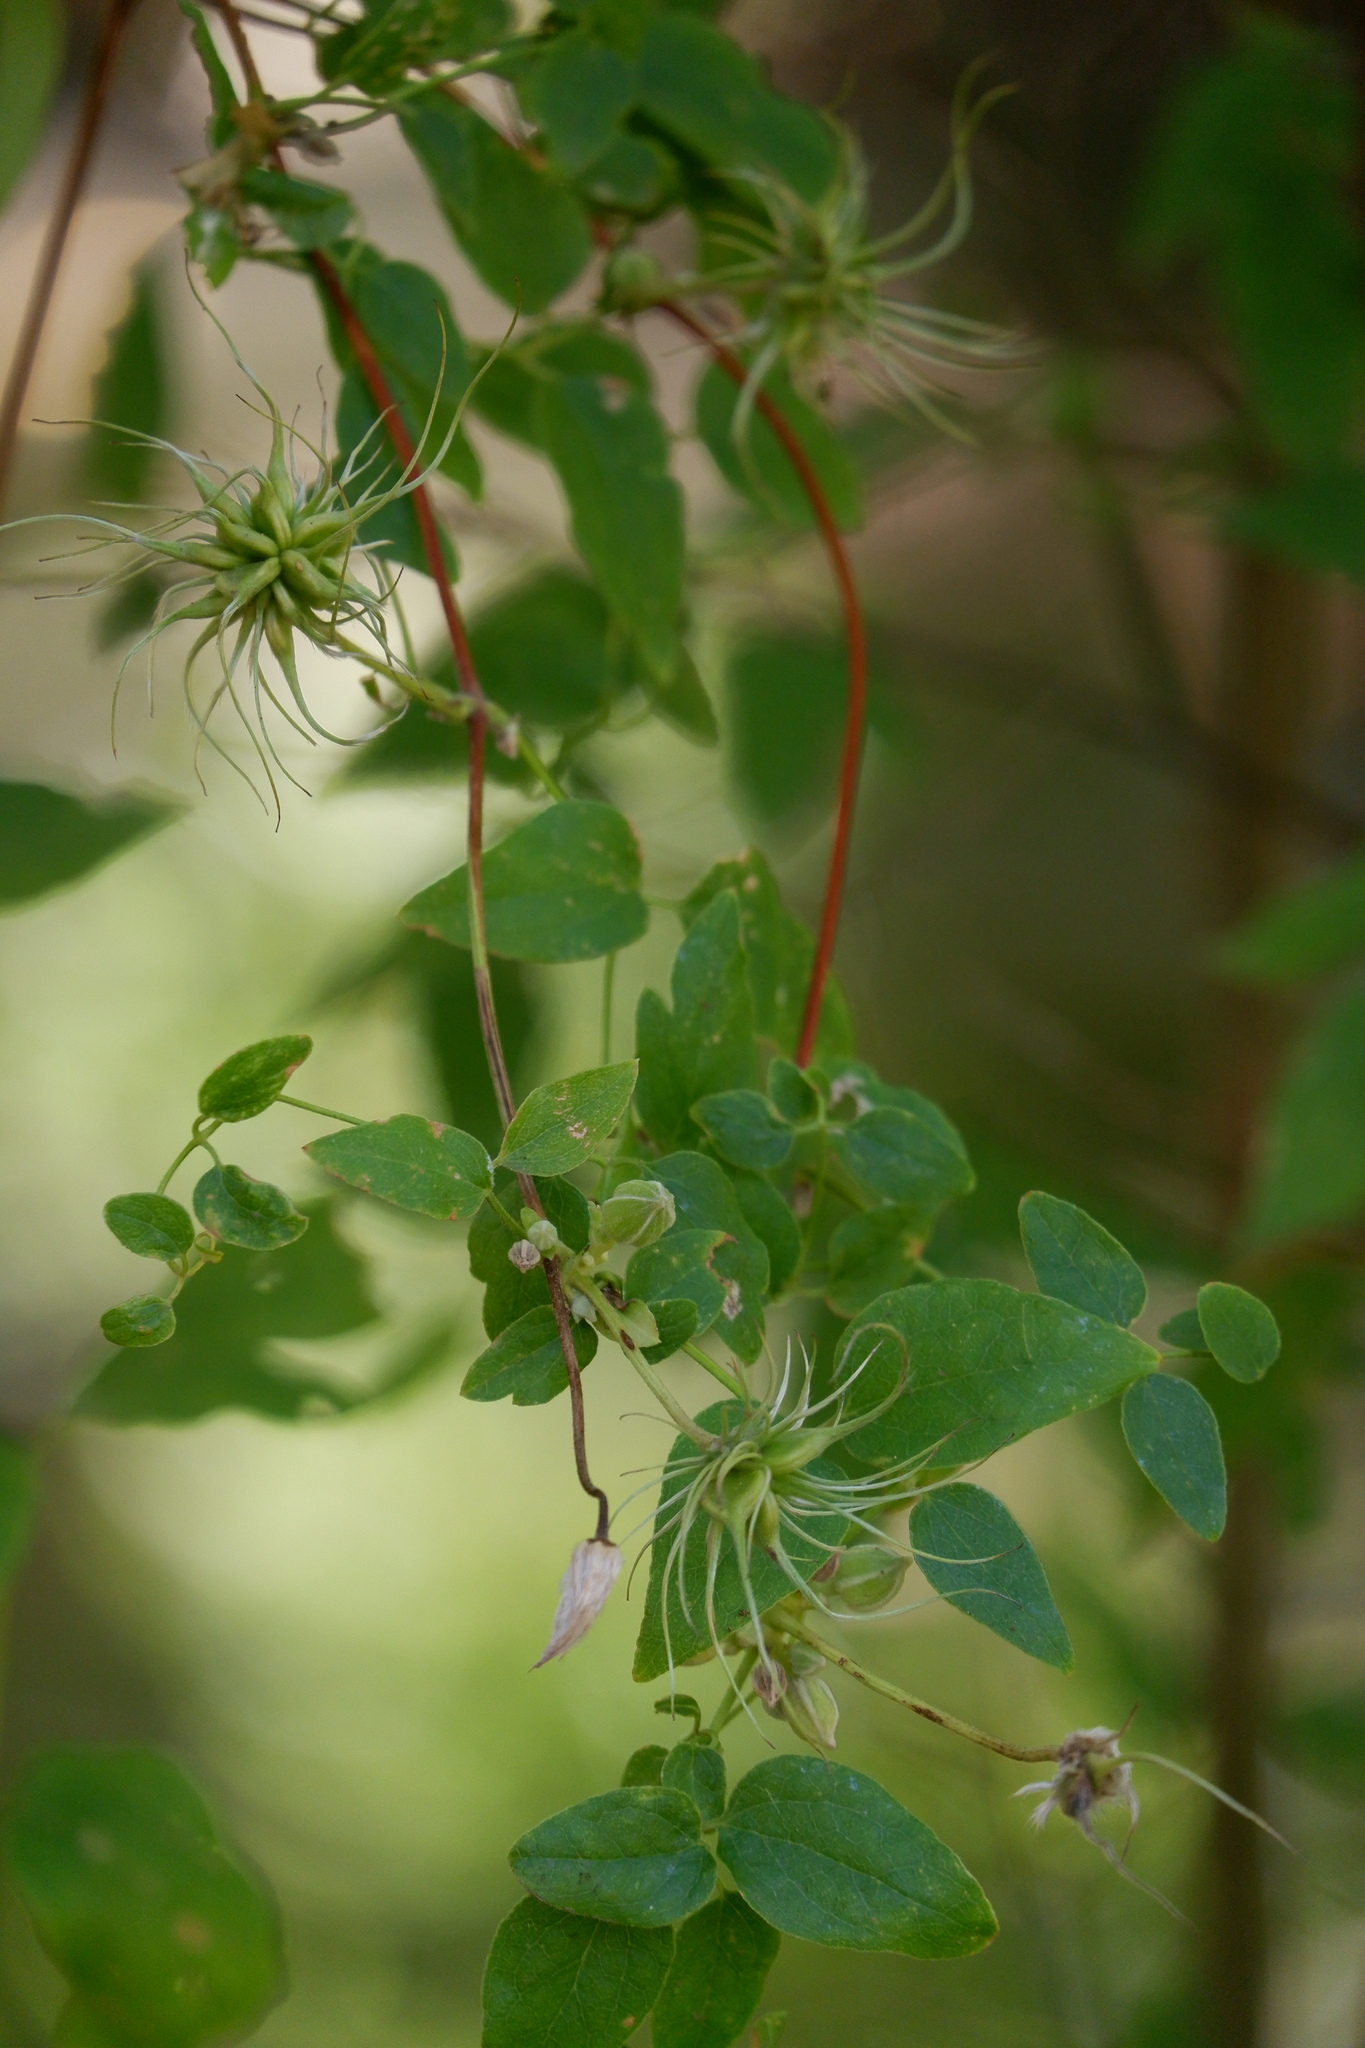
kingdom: Plantae
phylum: Tracheophyta
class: Magnoliopsida
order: Ranunculales
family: Ranunculaceae
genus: Clematis
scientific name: Clematis pitcheri
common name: Bellflower clematis
